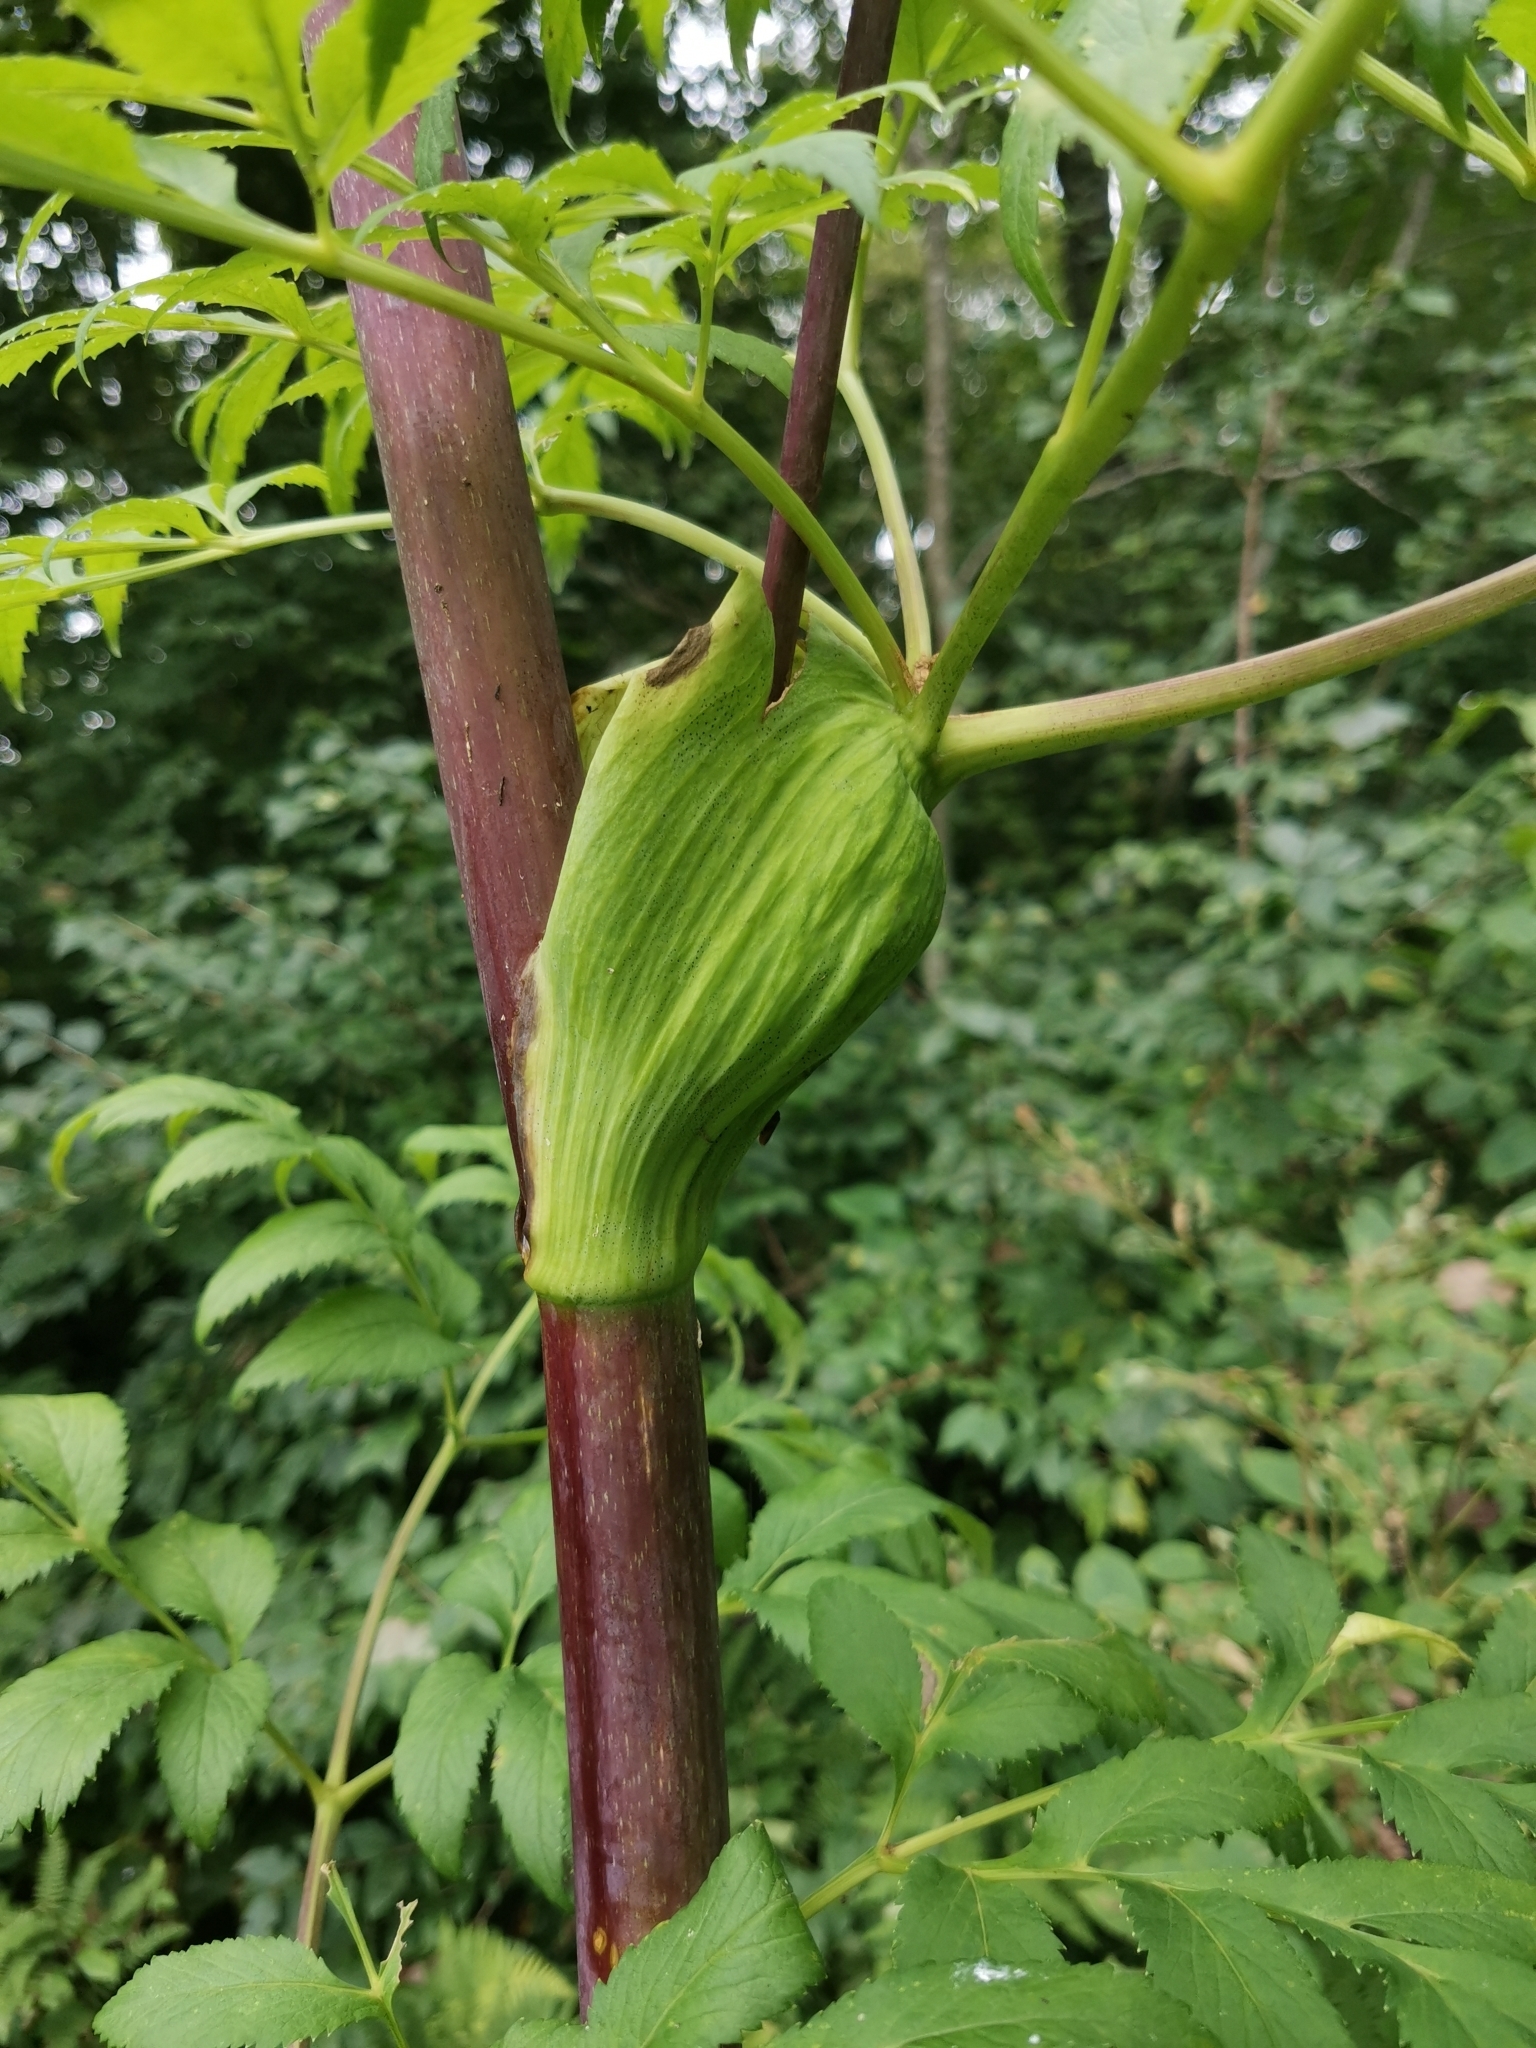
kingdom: Plantae
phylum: Tracheophyta
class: Magnoliopsida
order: Apiales
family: Apiaceae
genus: Angelica
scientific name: Angelica dahurica
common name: Dahurian angelica
